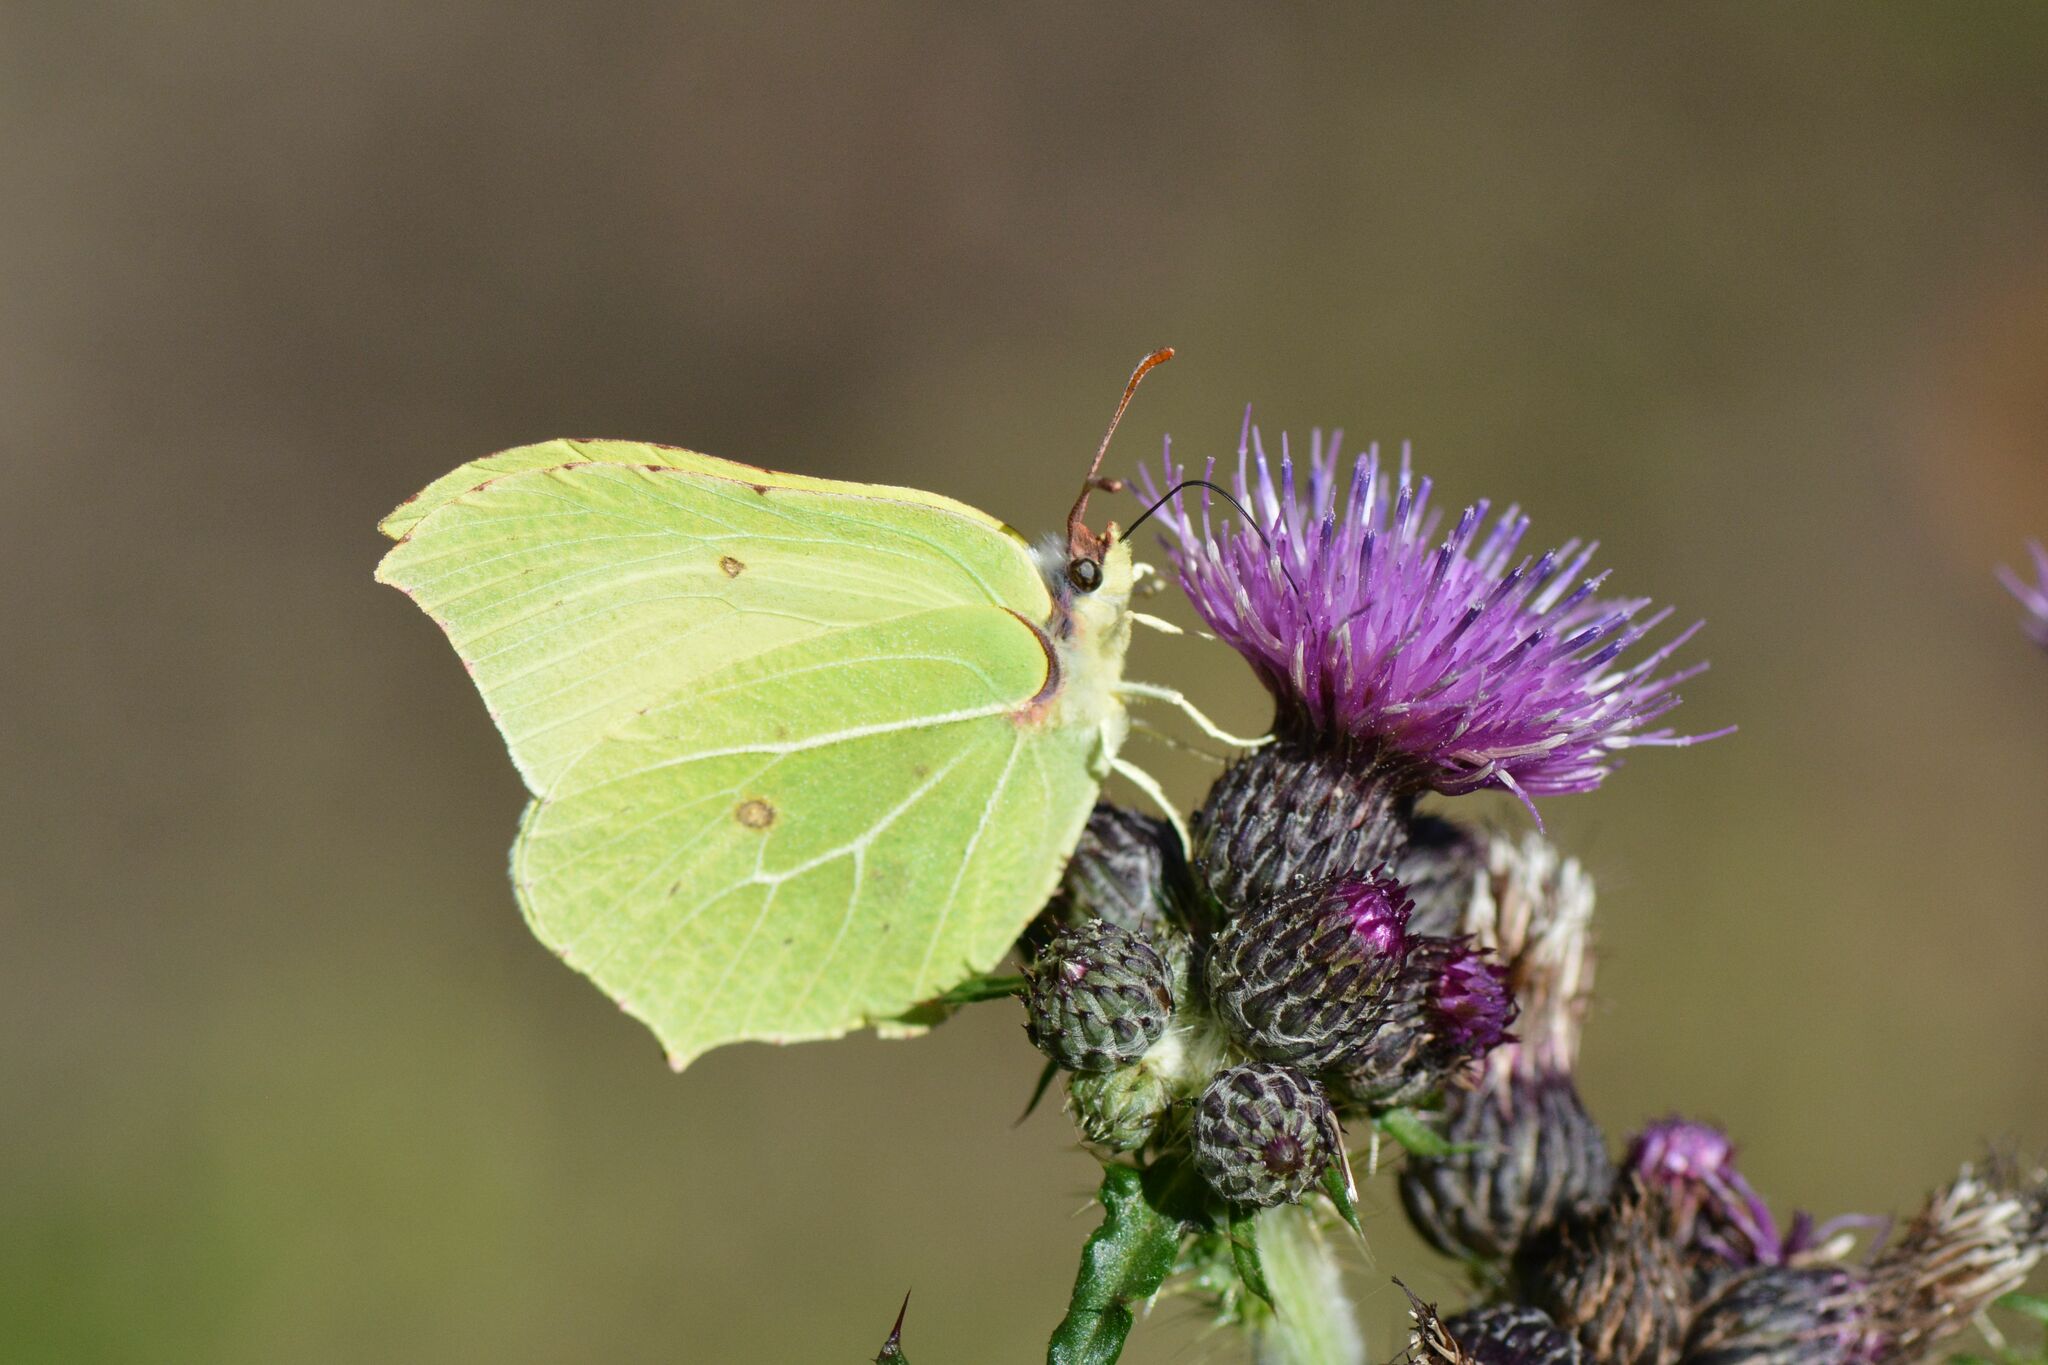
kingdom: Animalia
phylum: Arthropoda
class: Insecta
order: Lepidoptera
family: Pieridae
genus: Gonepteryx
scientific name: Gonepteryx rhamni
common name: Brimstone
